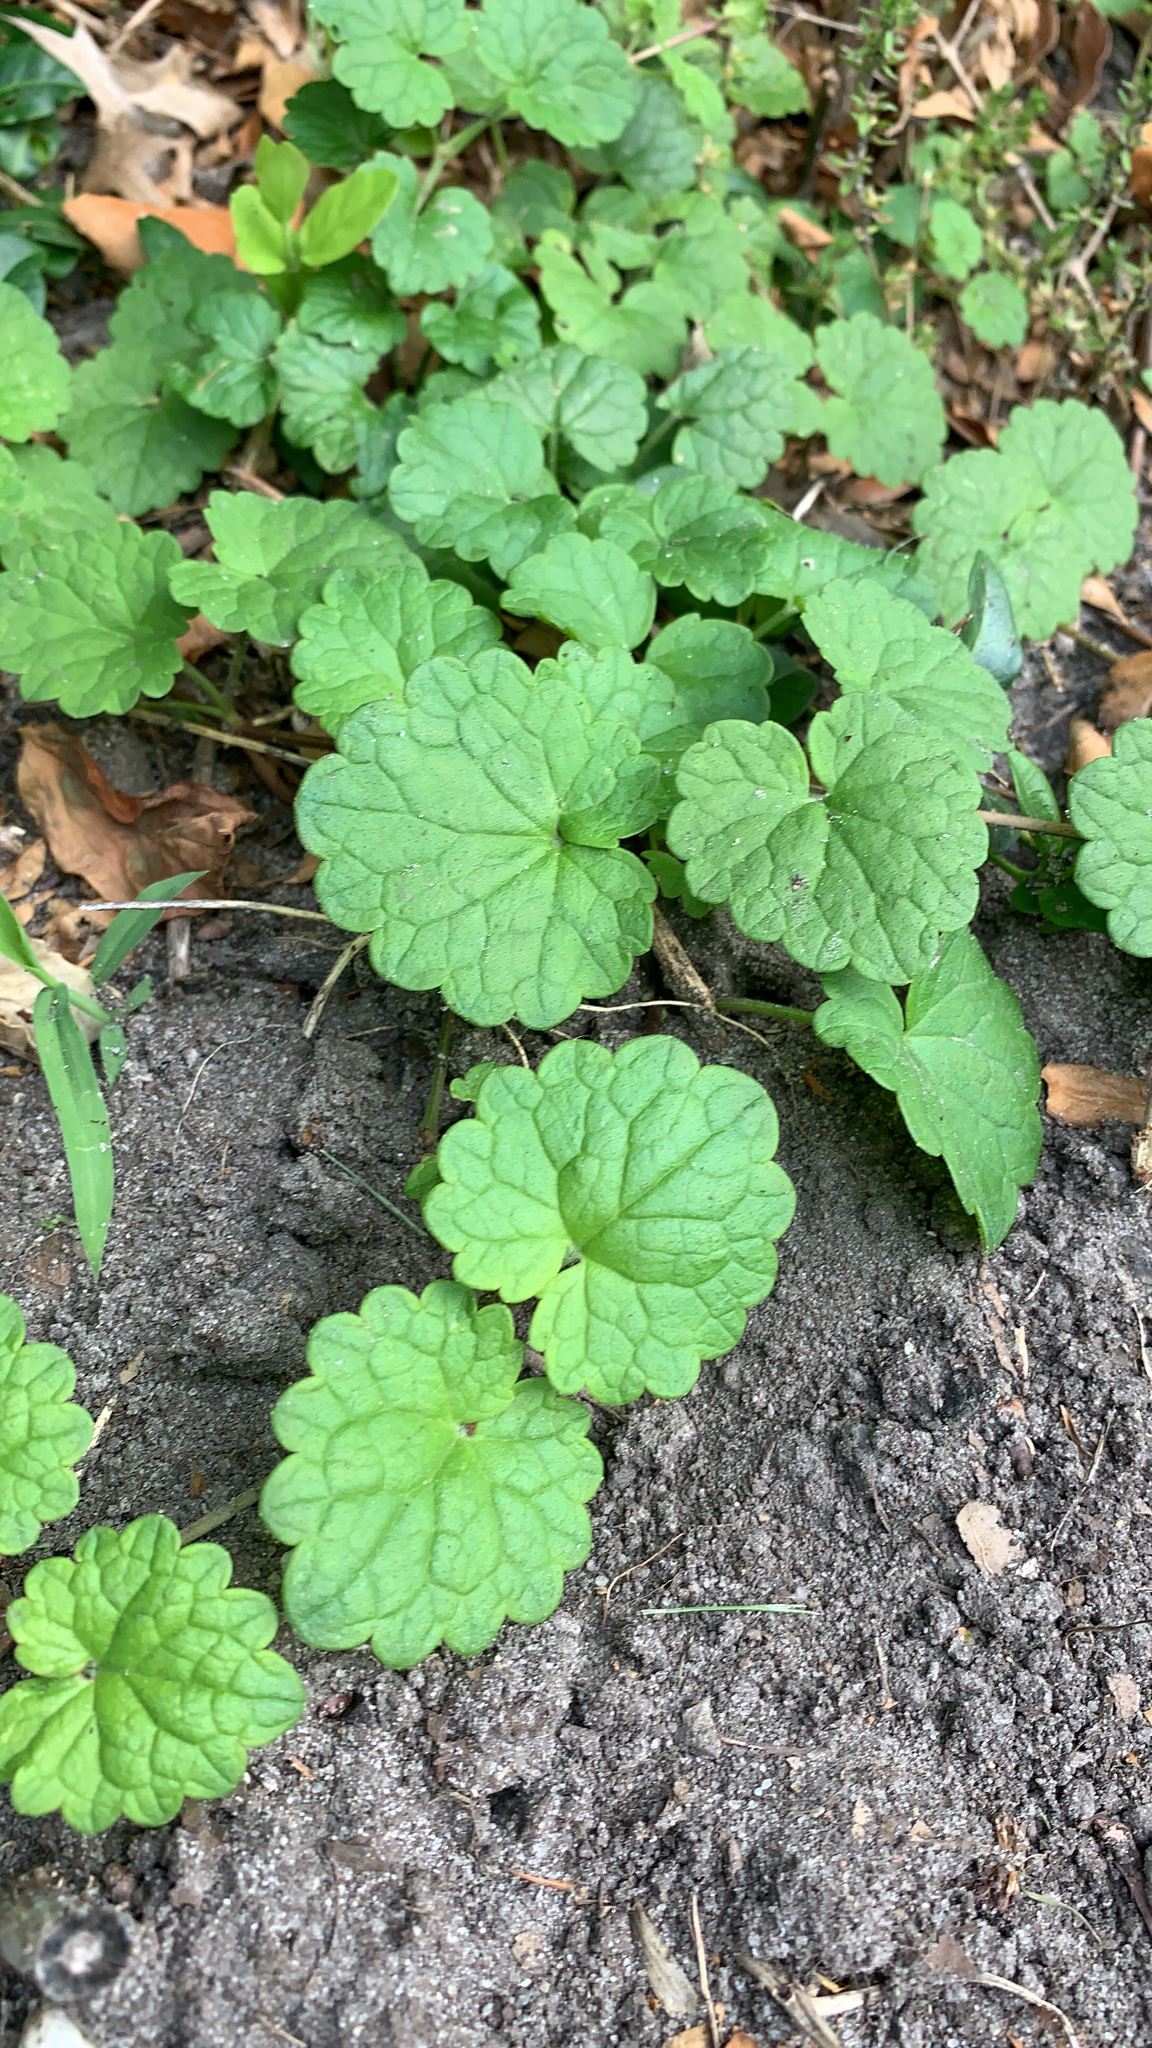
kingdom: Plantae
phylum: Tracheophyta
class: Magnoliopsida
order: Lamiales
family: Lamiaceae
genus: Glechoma
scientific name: Glechoma hederacea
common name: Ground ivy
